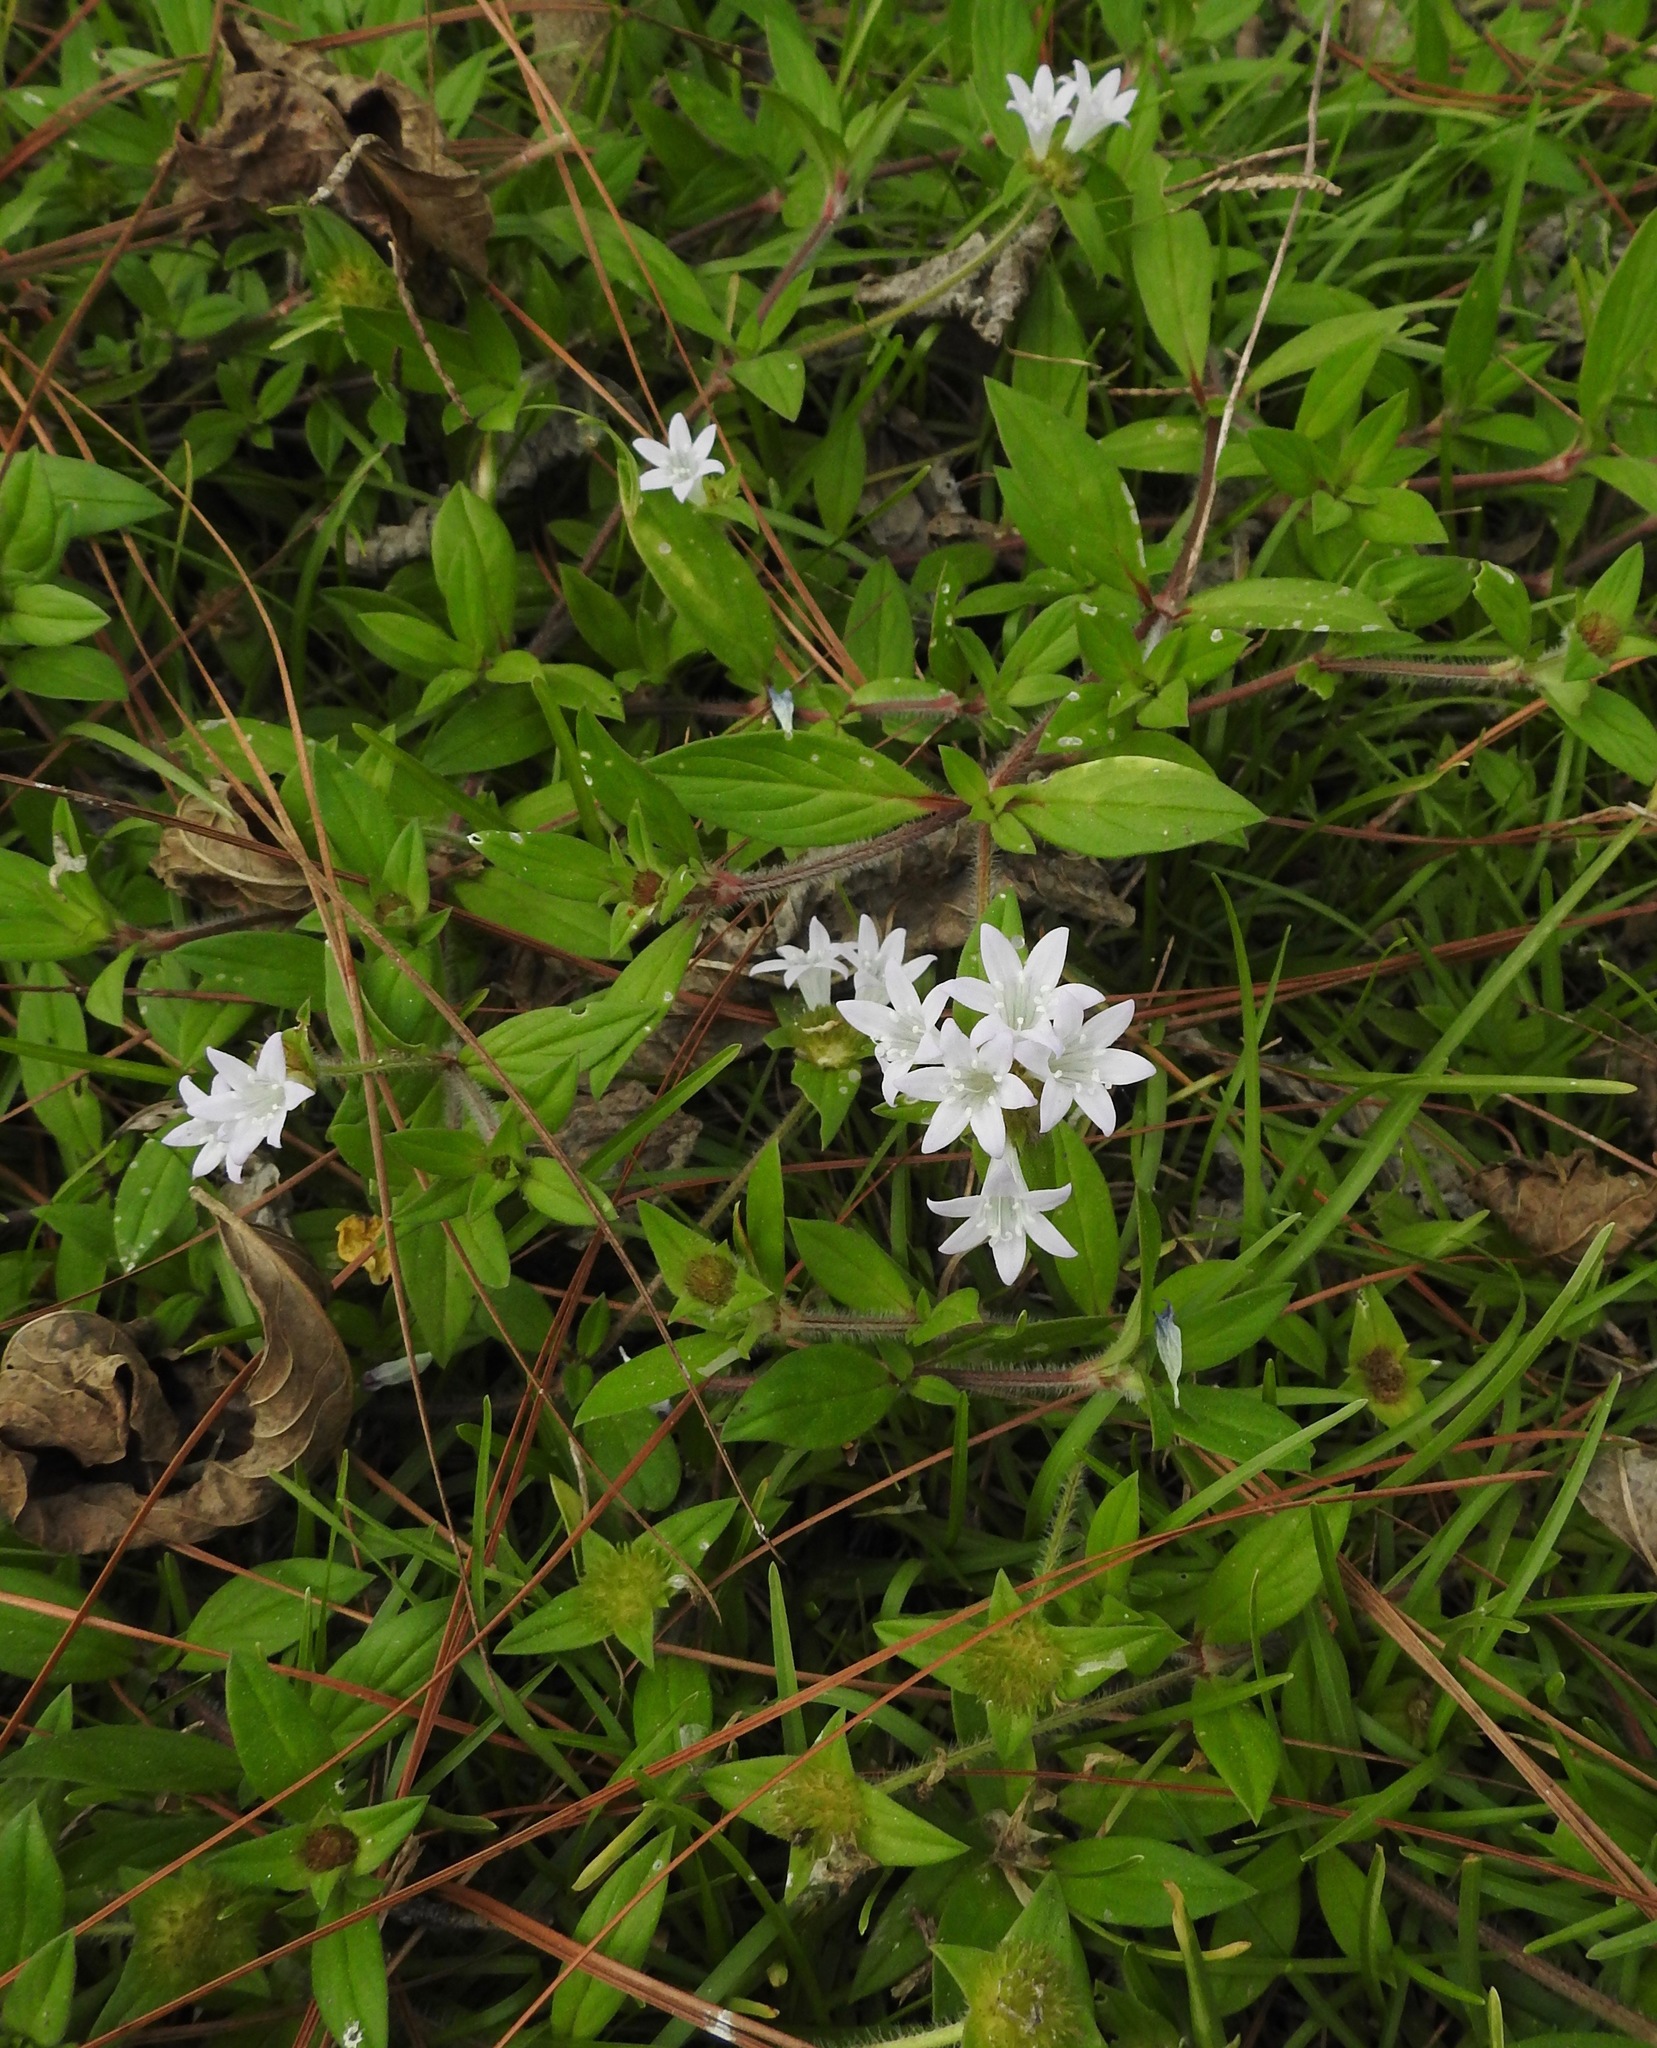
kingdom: Plantae
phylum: Tracheophyta
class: Magnoliopsida
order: Gentianales
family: Rubiaceae
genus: Richardia
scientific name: Richardia grandiflora
